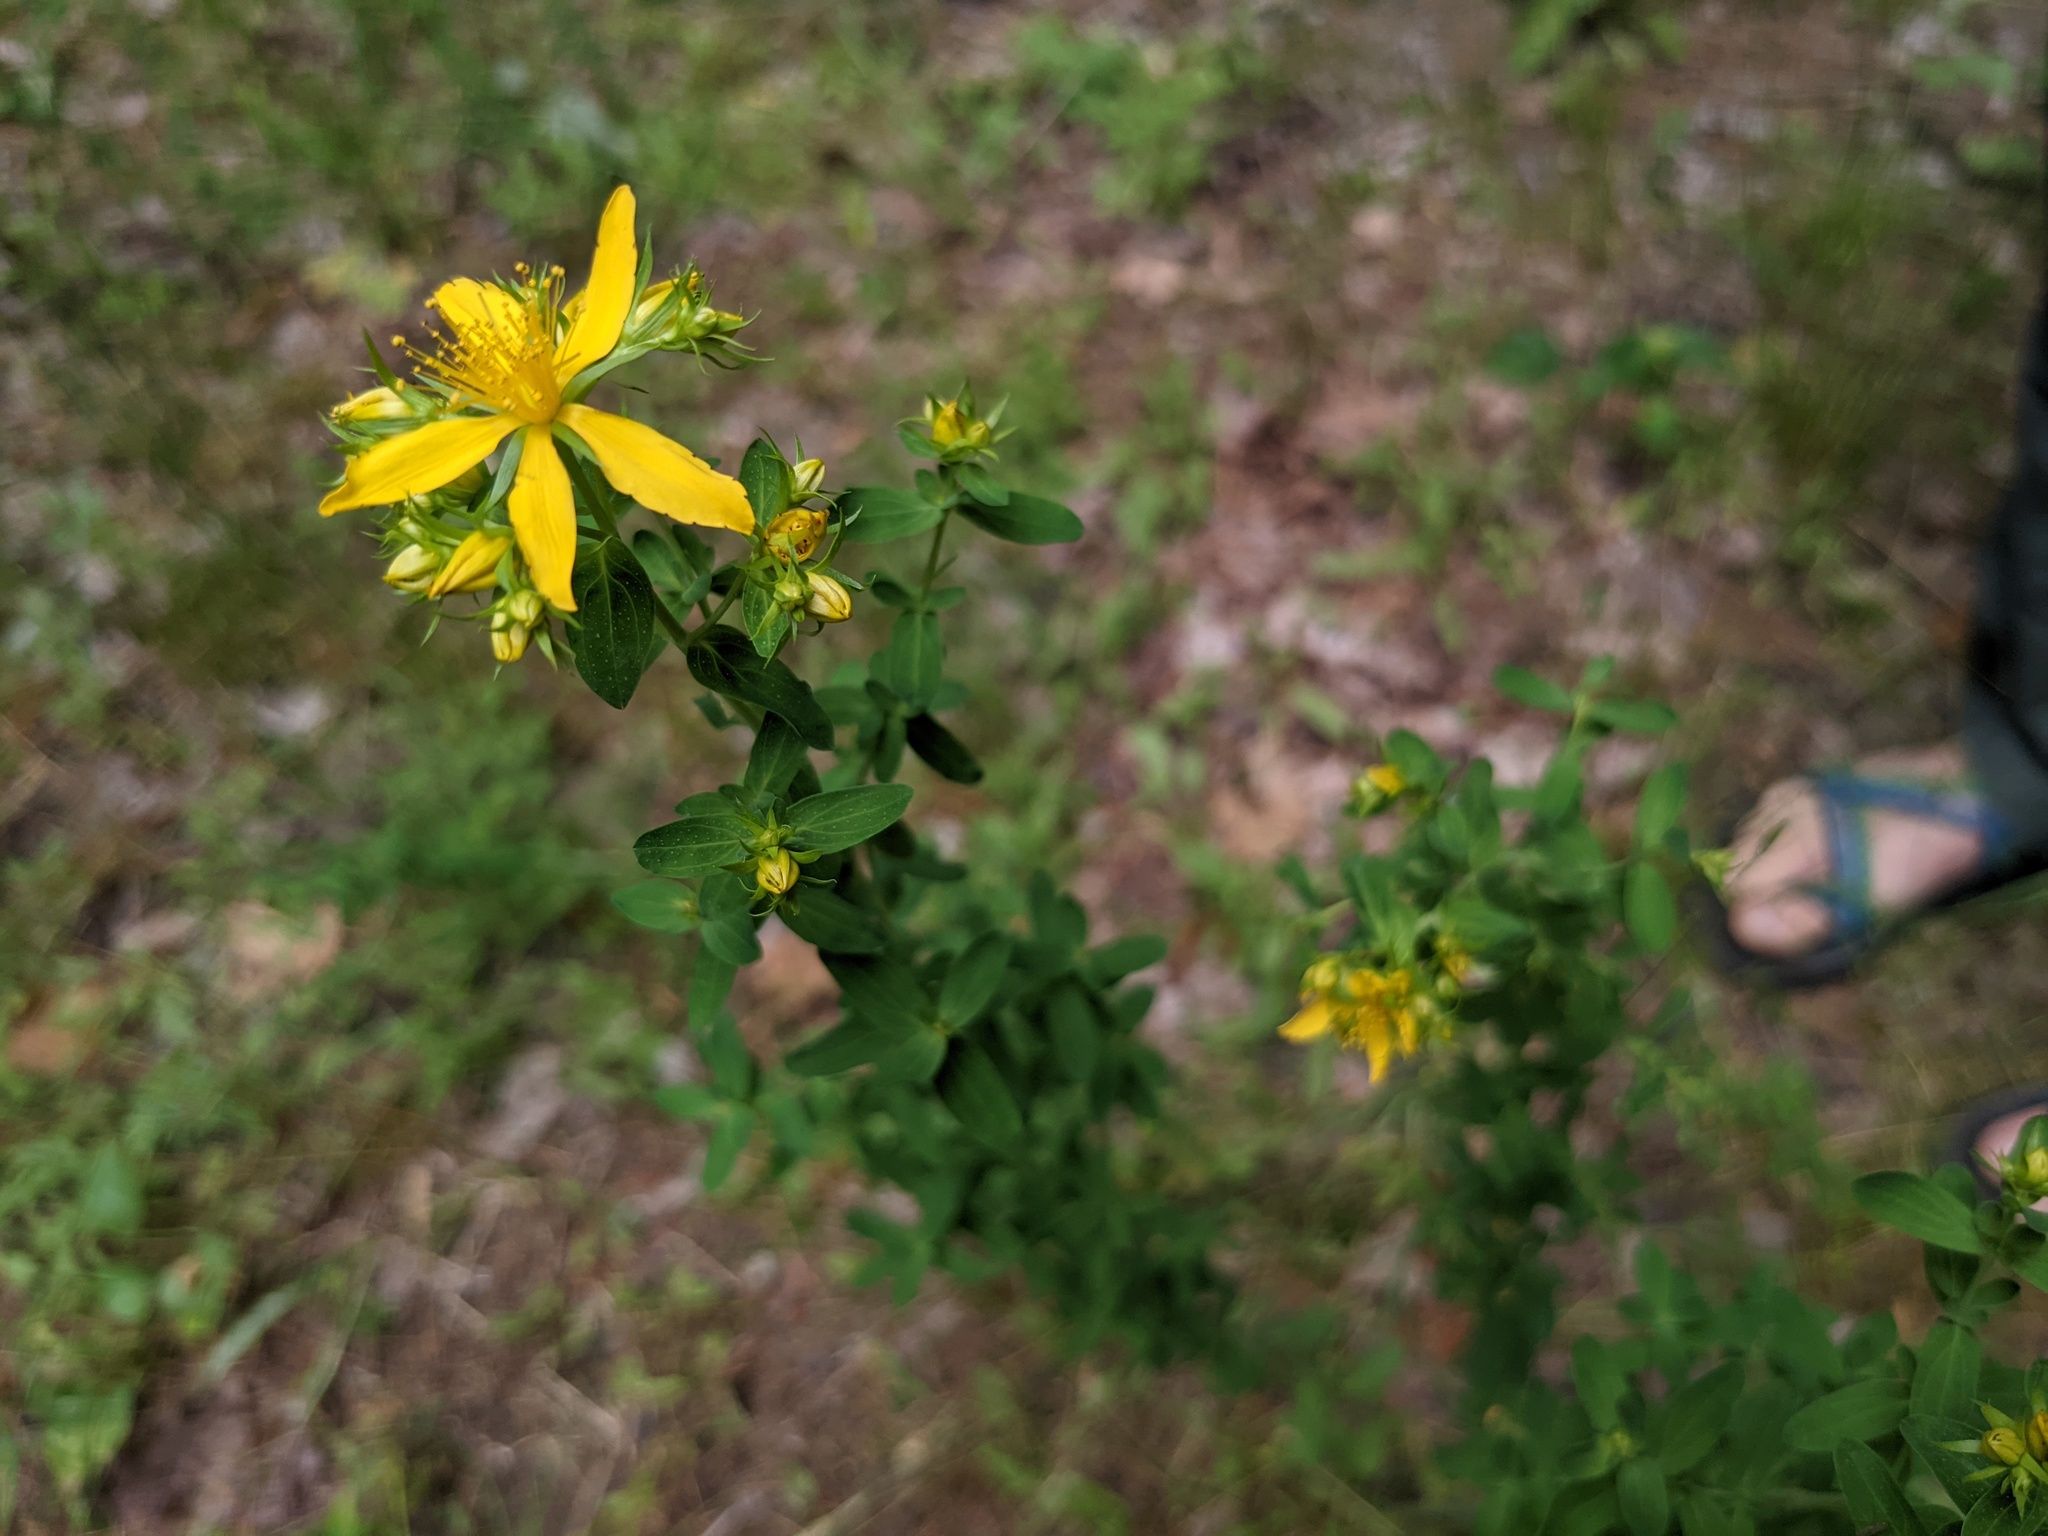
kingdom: Plantae
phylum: Tracheophyta
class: Magnoliopsida
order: Malpighiales
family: Hypericaceae
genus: Hypericum
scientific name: Hypericum perforatum
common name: Common st. johnswort
